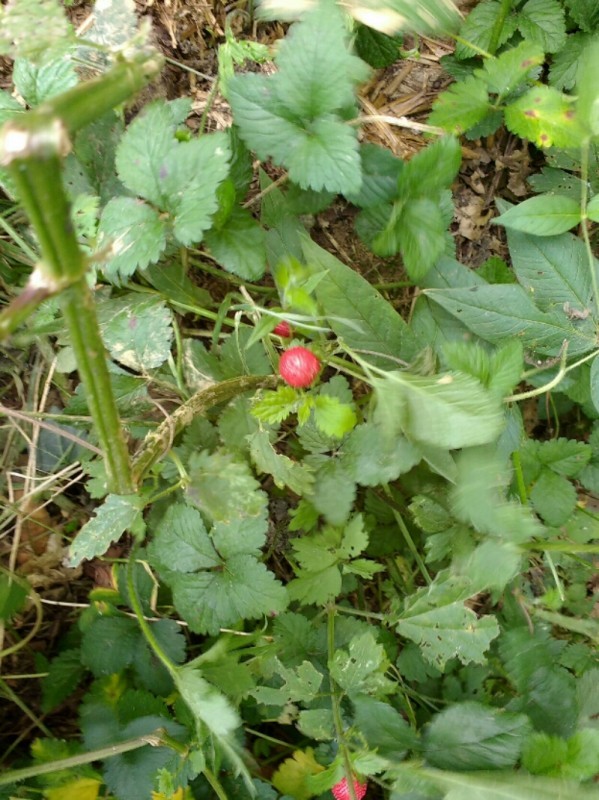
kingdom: Plantae
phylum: Tracheophyta
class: Magnoliopsida
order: Rosales
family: Rosaceae
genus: Potentilla
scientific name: Potentilla indica
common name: Yellow-flowered strawberry
